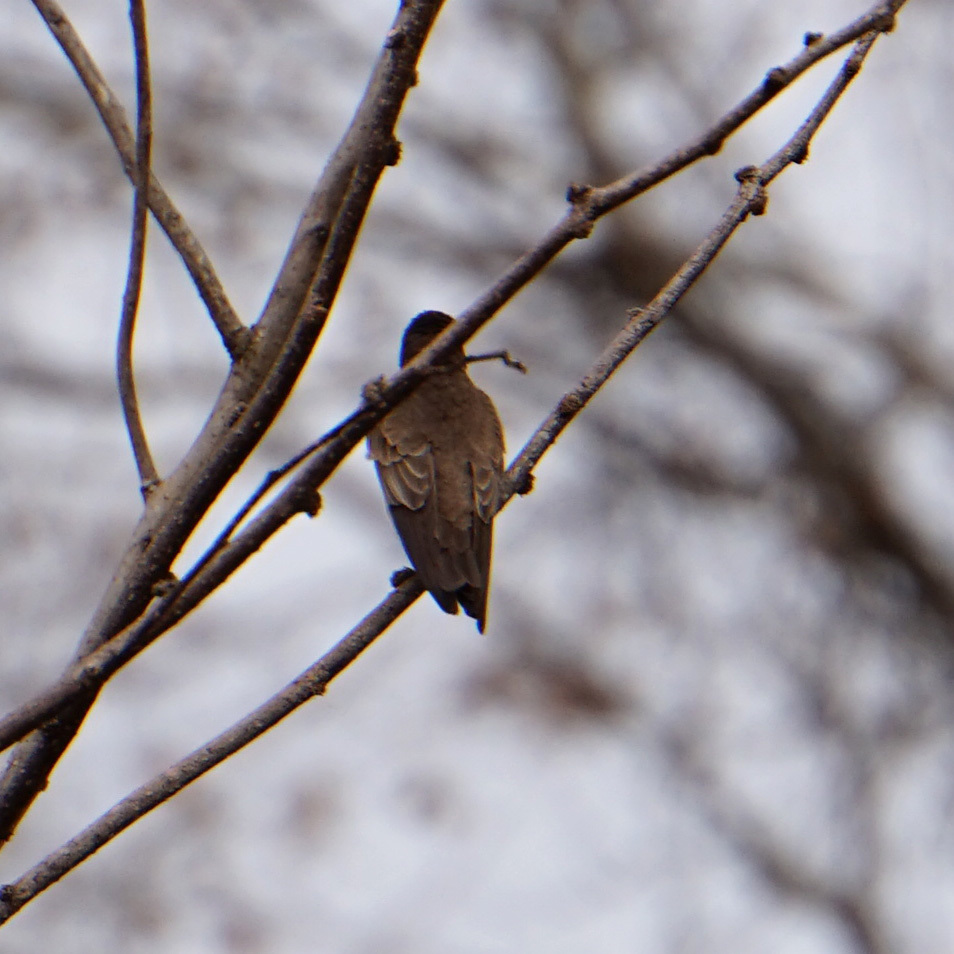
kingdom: Animalia
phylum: Chordata
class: Aves
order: Passeriformes
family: Hirundinidae
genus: Stelgidopteryx
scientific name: Stelgidopteryx serripennis
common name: Northern rough-winged swallow
